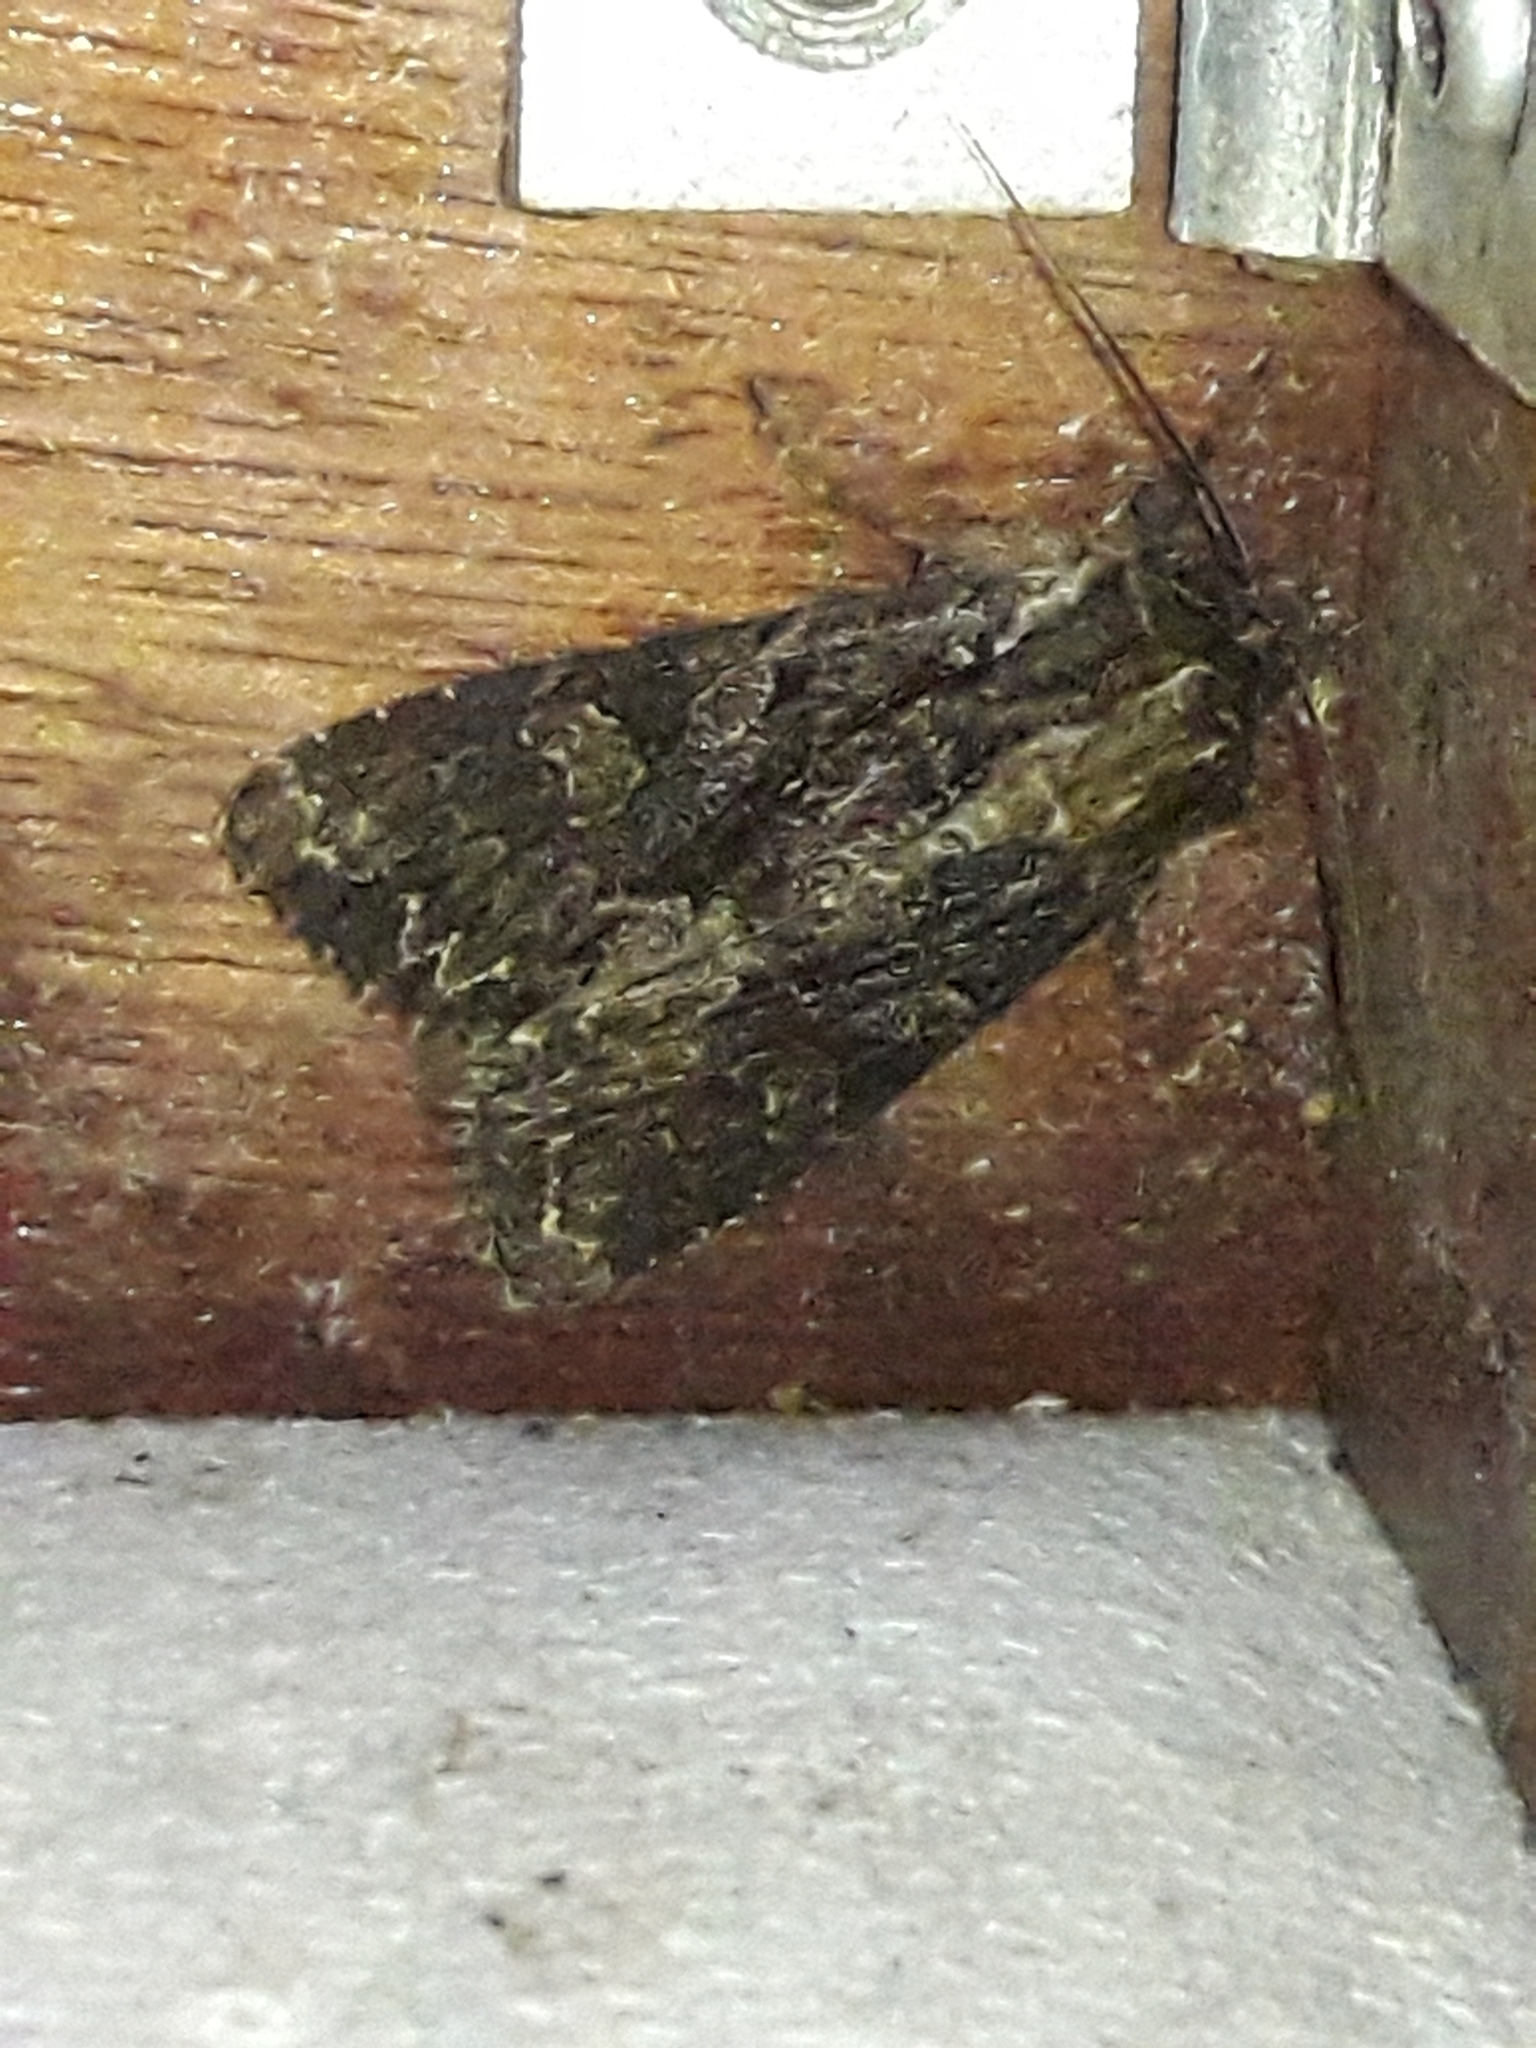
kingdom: Animalia
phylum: Arthropoda
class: Insecta
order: Lepidoptera
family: Noctuidae
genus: Apamea
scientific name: Apamea monoglypha
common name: Dark arches
